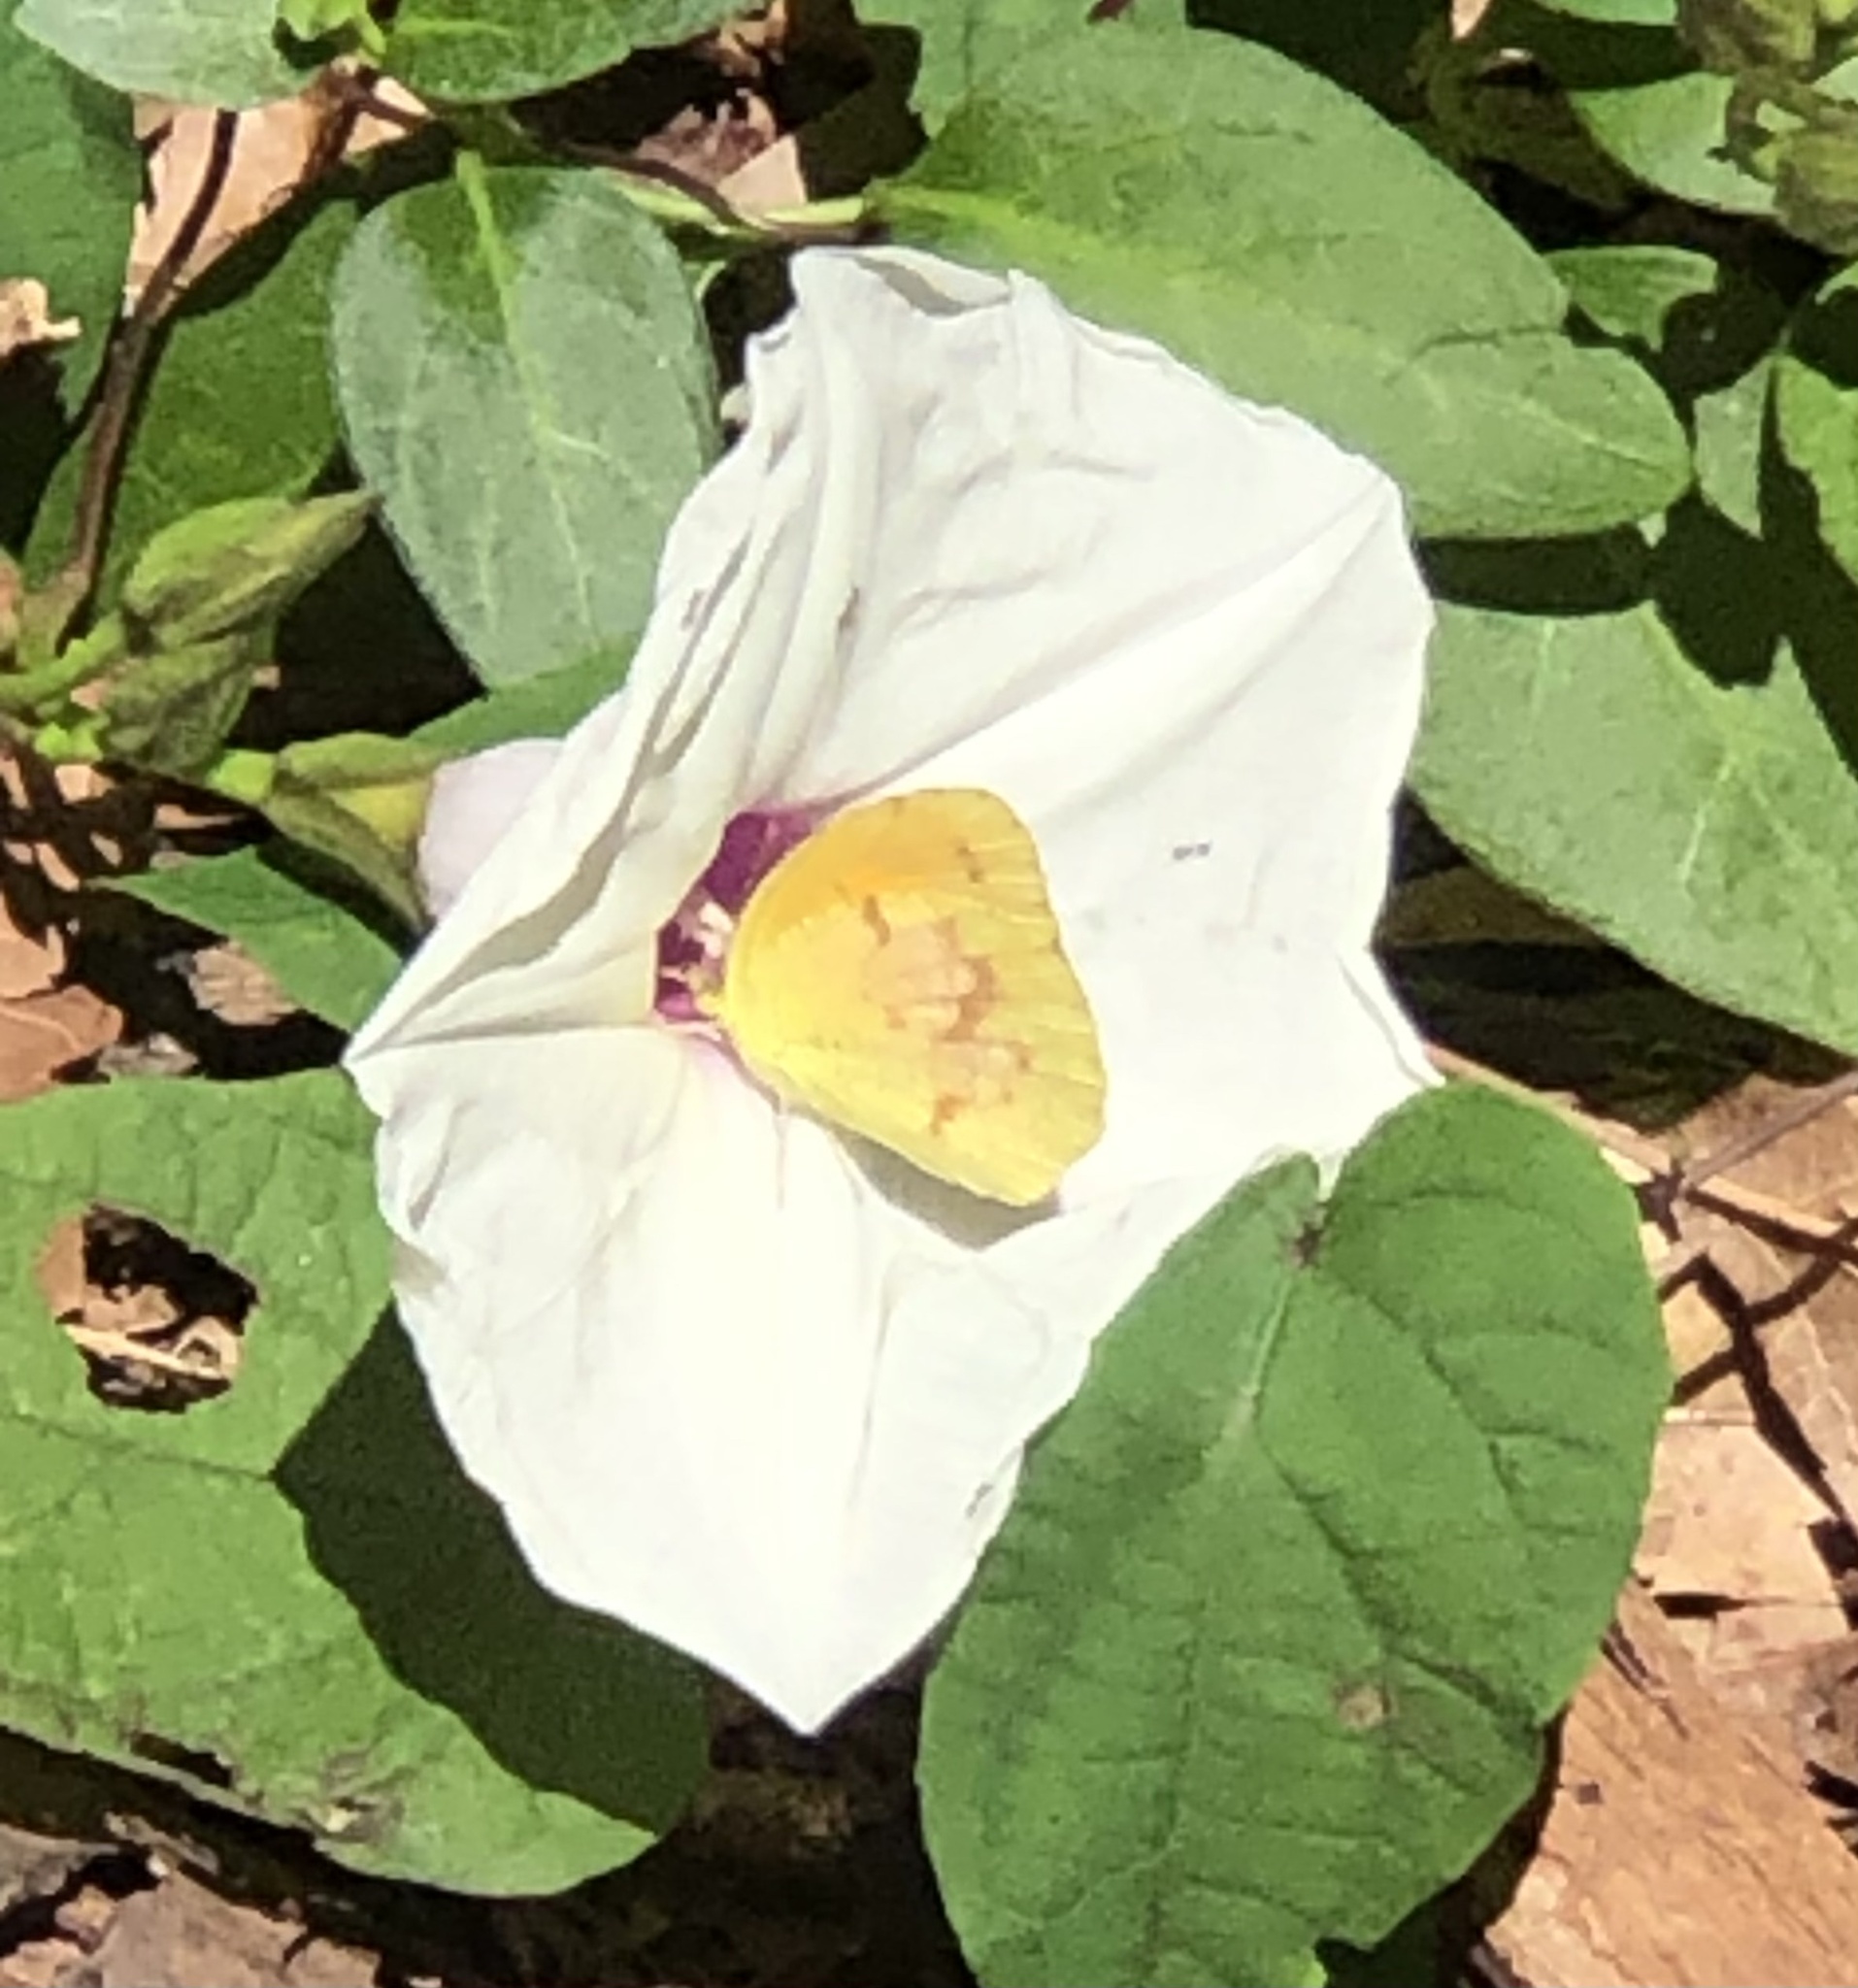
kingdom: Animalia
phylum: Arthropoda
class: Insecta
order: Lepidoptera
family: Pieridae
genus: Abaeis
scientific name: Abaeis nicippe
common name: Sleepy orange
